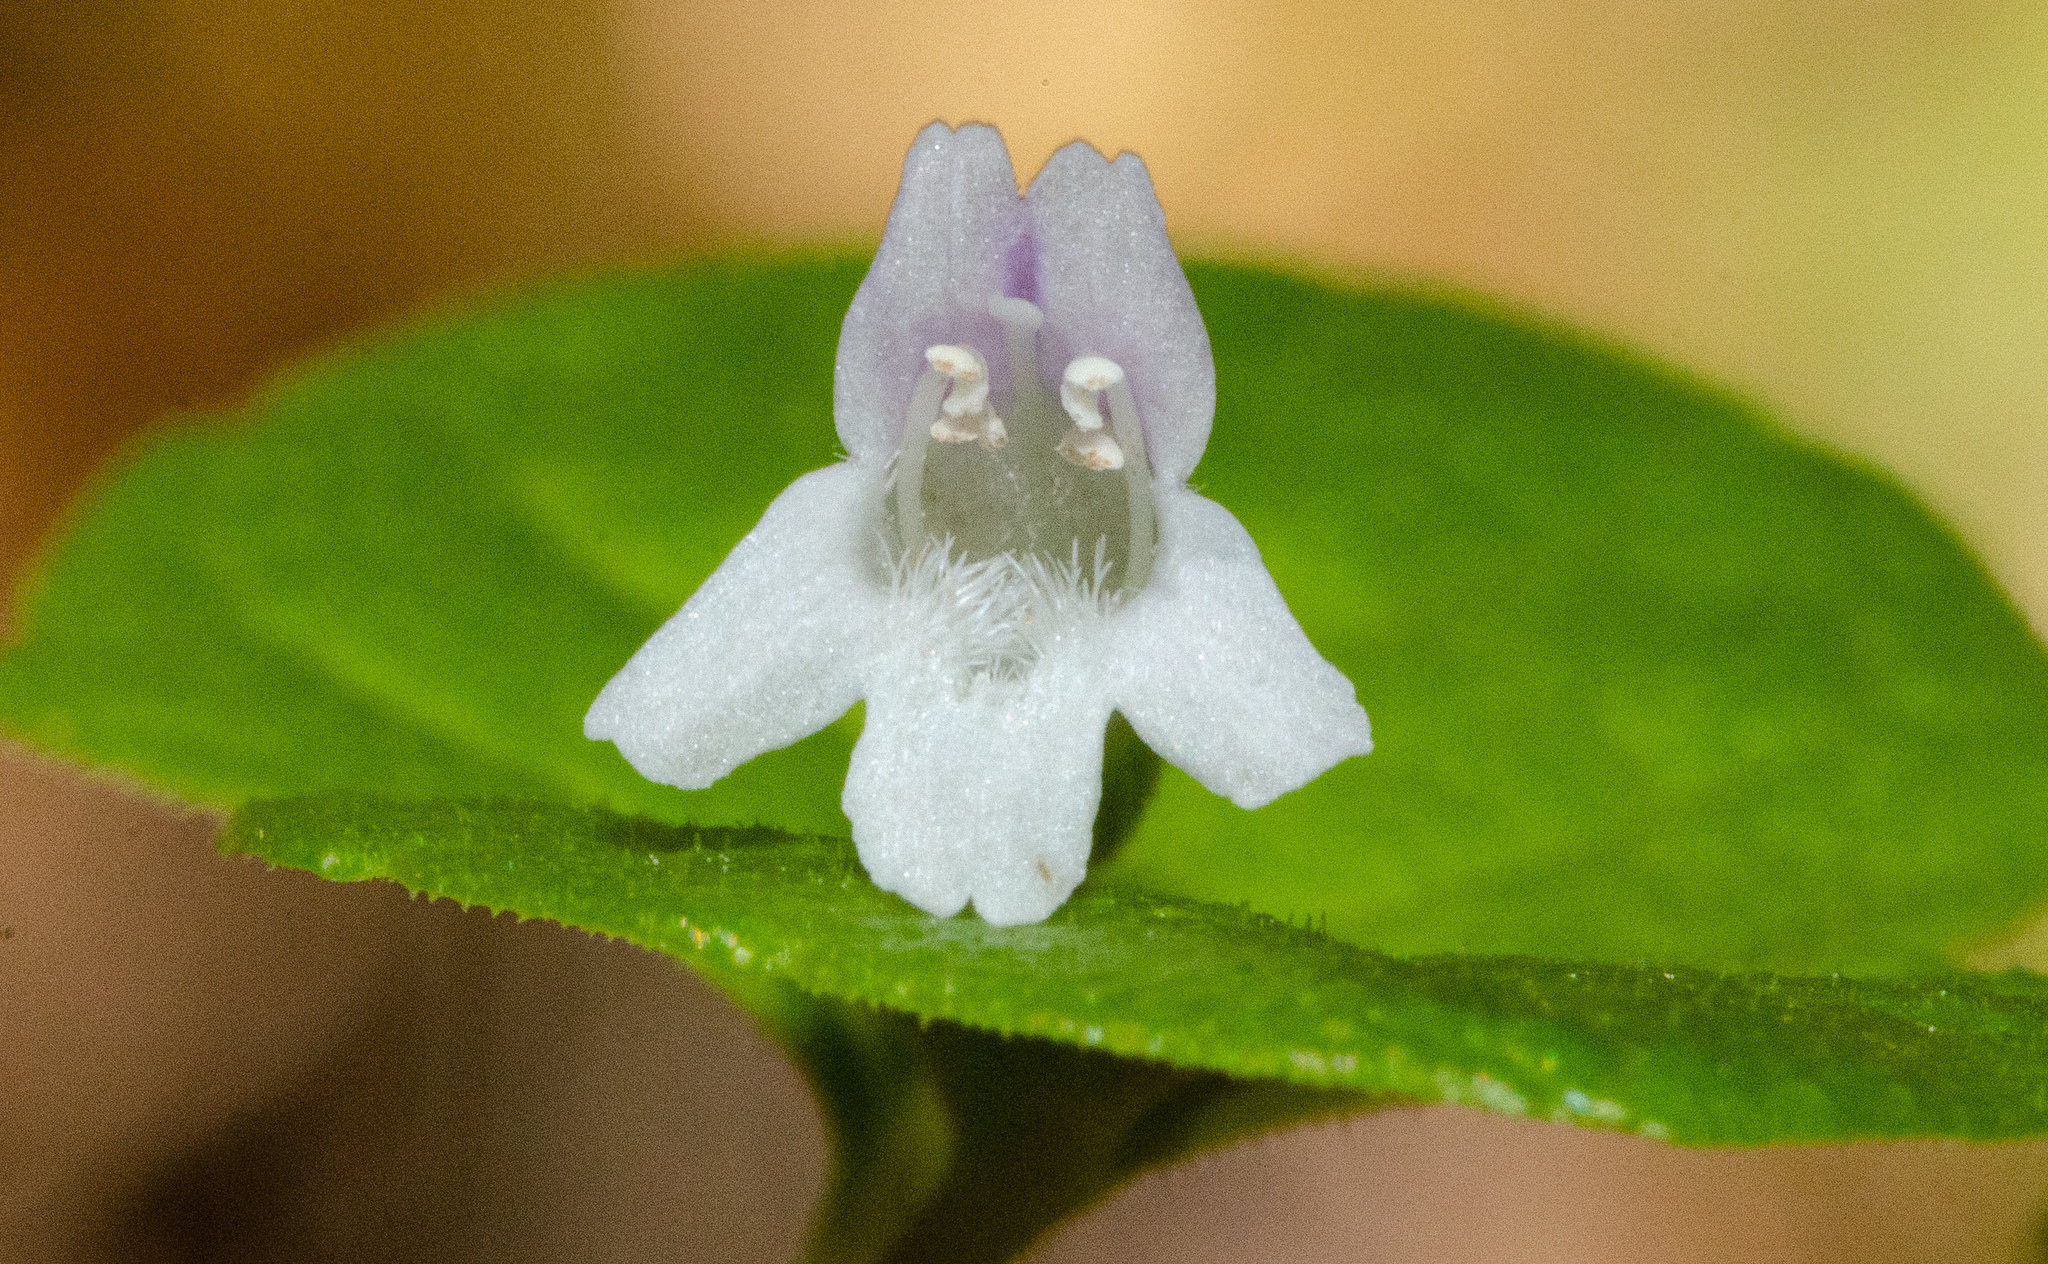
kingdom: Plantae
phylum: Tracheophyta
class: Magnoliopsida
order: Lamiales
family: Lamiaceae
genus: Micromeria
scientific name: Micromeria douglasii
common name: Yerba buena
